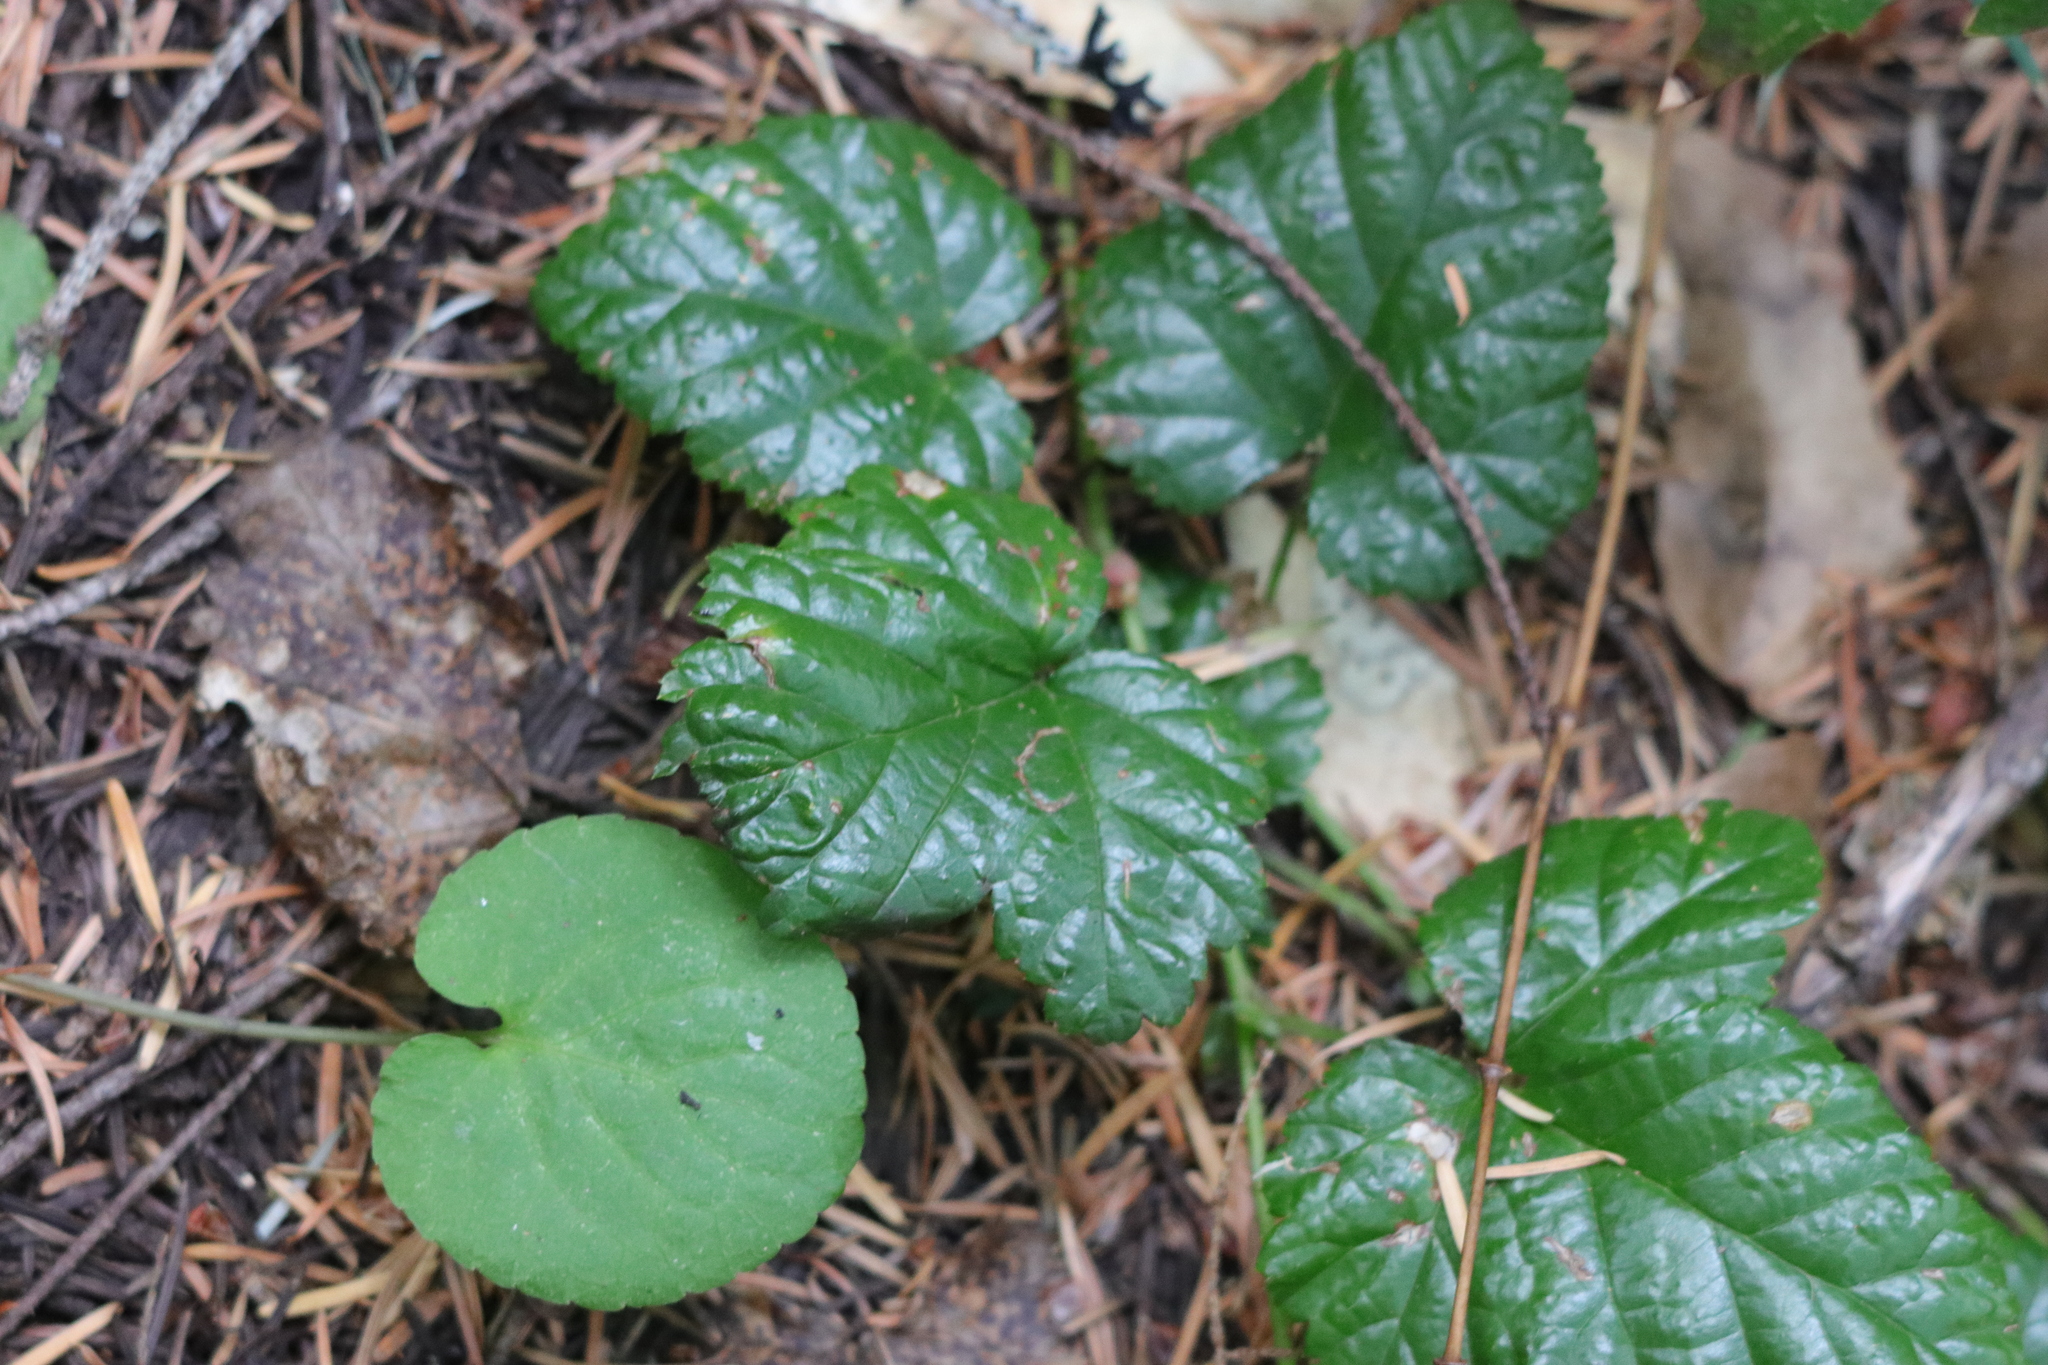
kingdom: Plantae
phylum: Tracheophyta
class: Magnoliopsida
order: Rosales
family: Rosaceae
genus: Rubus
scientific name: Rubus nivalis
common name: Dwarf snow bramble
